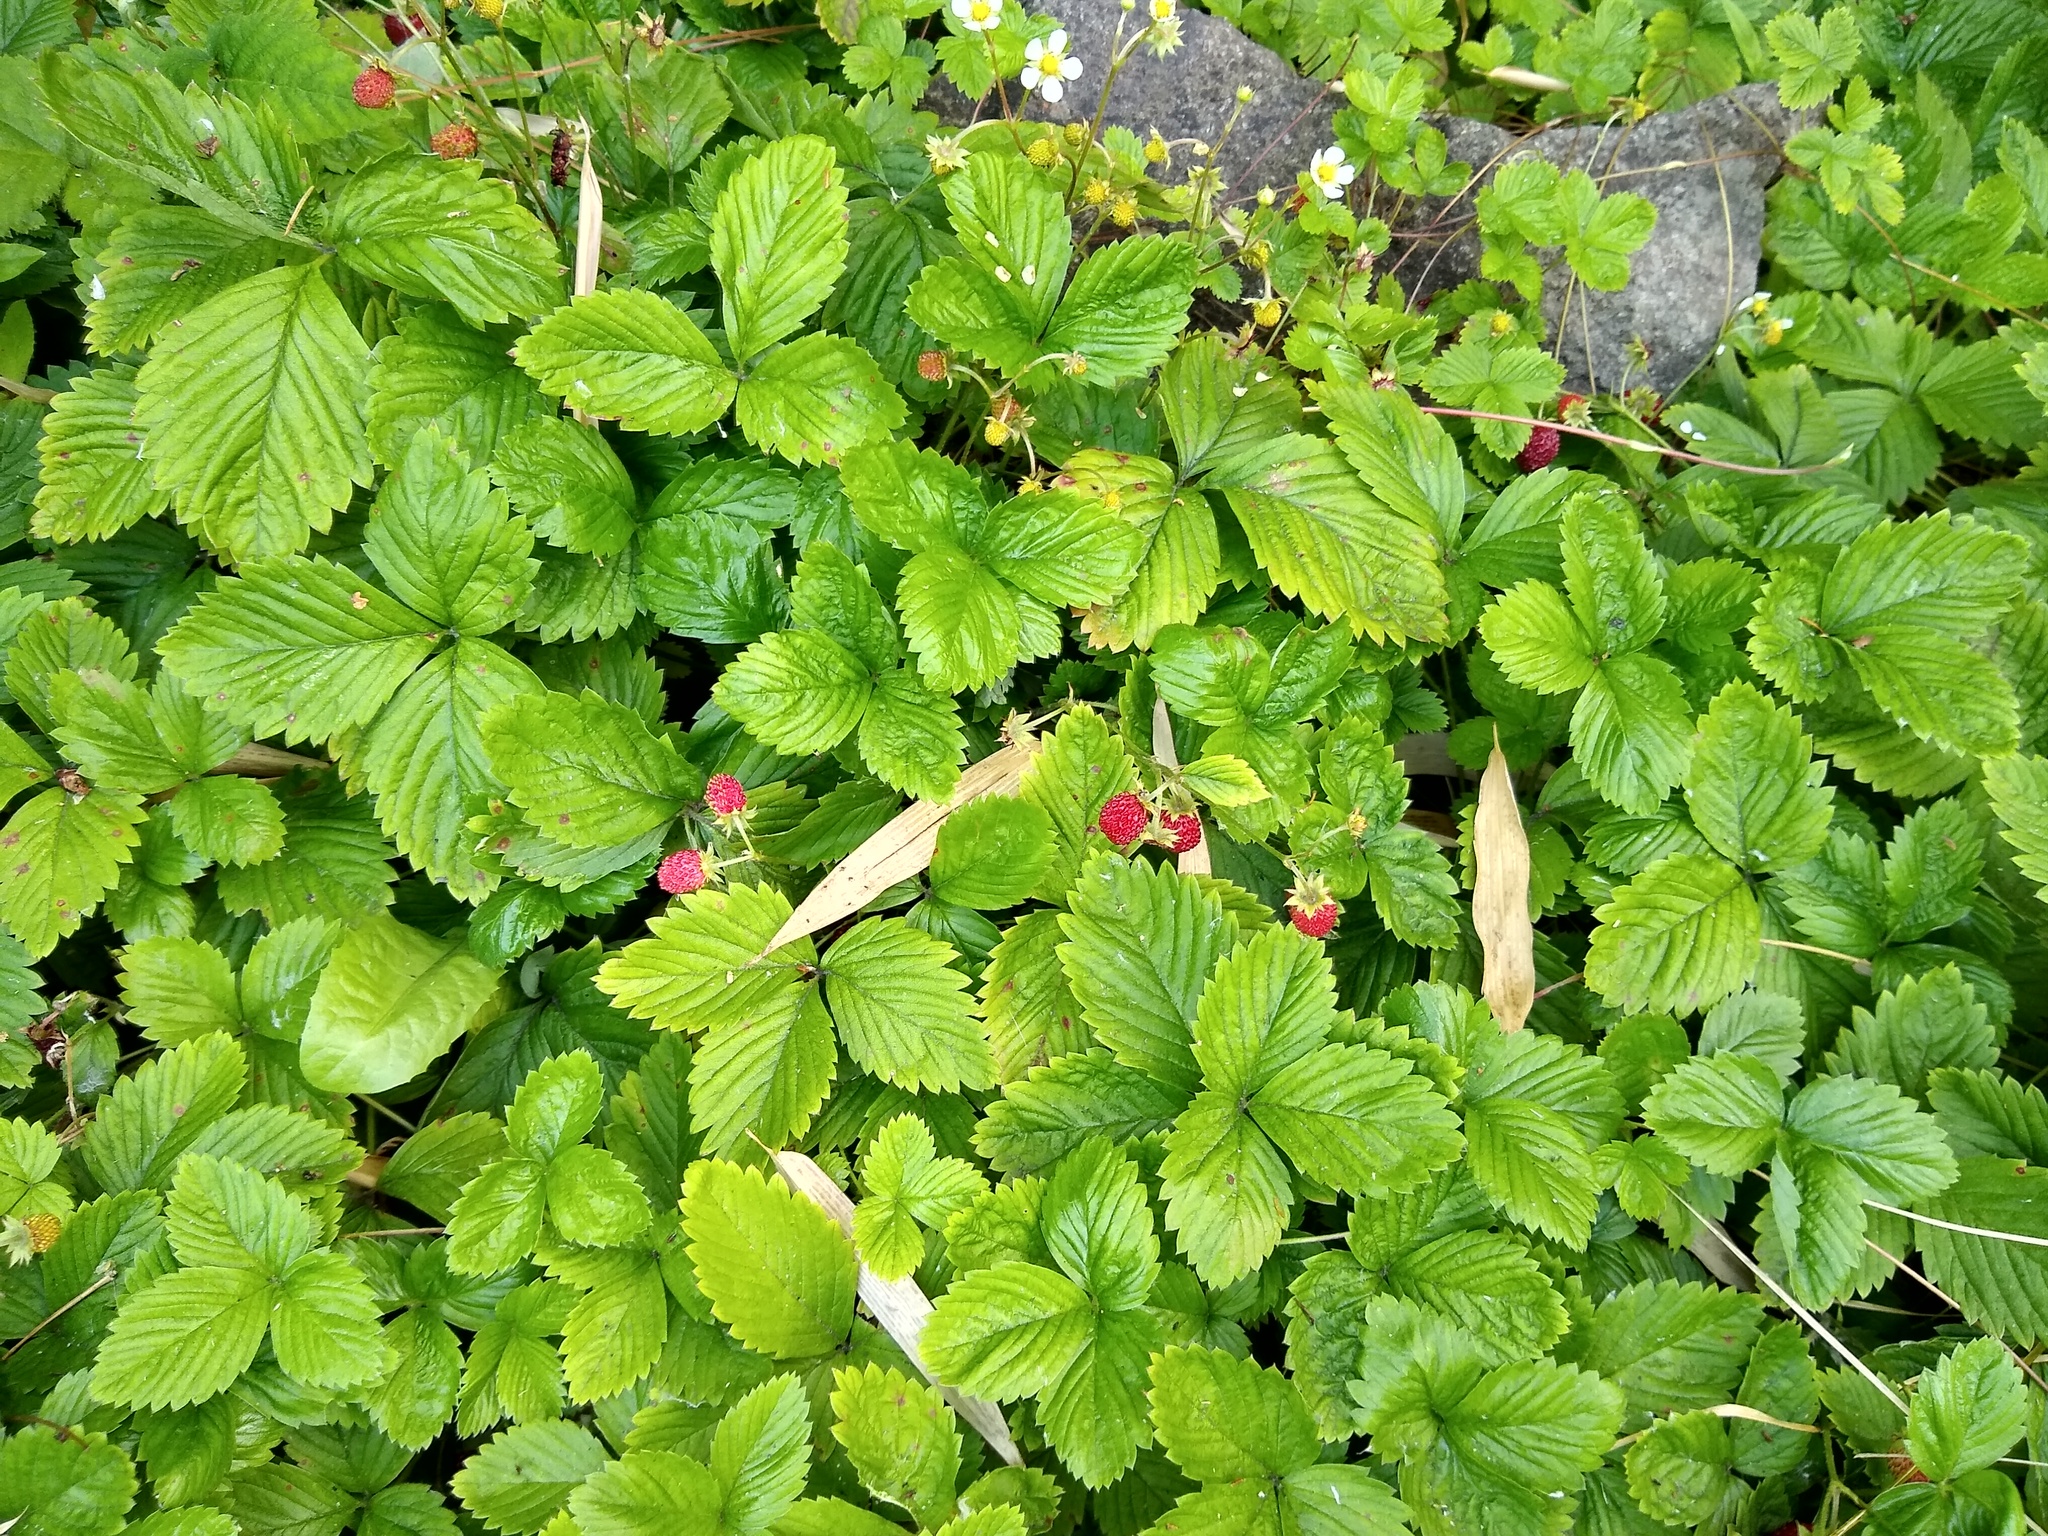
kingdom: Plantae
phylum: Tracheophyta
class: Magnoliopsida
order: Rosales
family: Rosaceae
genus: Fragaria
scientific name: Fragaria vesca
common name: Wild strawberry
